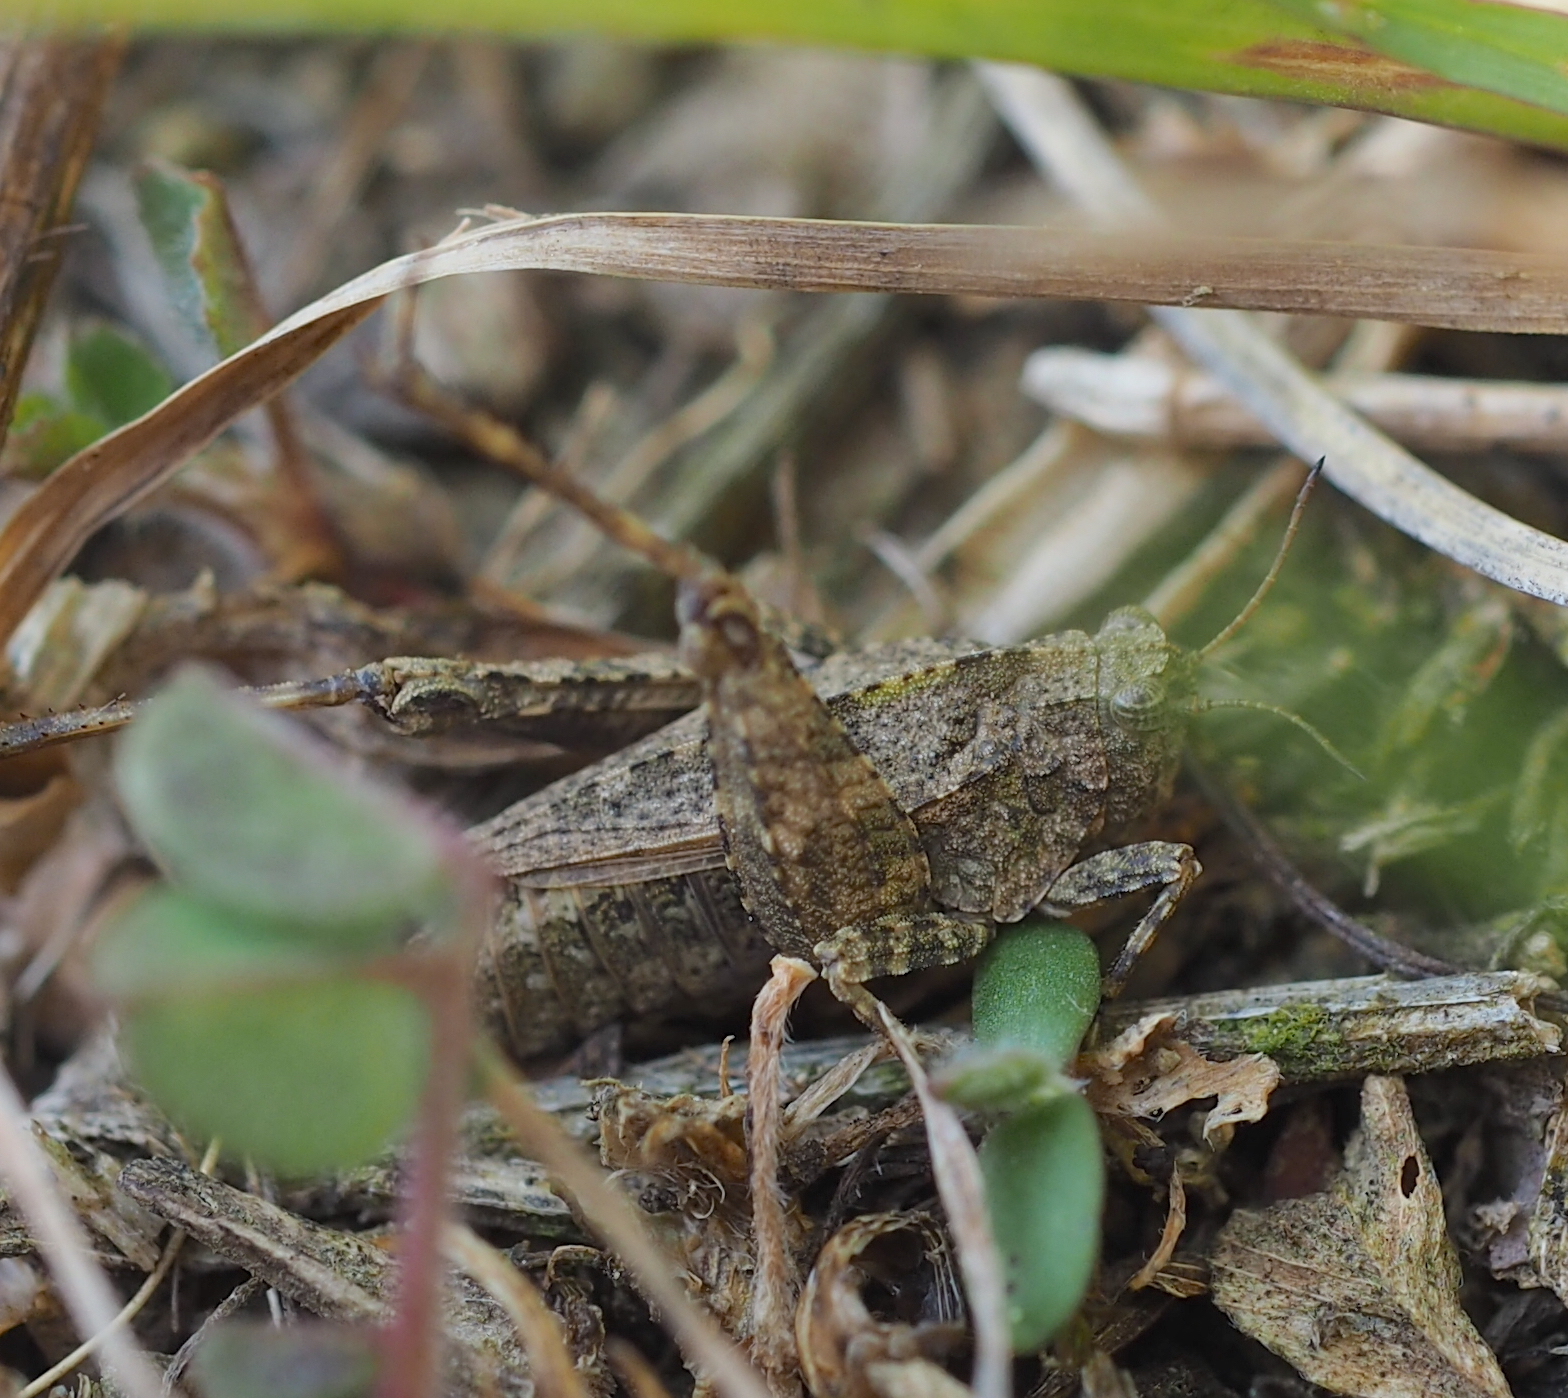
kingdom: Animalia
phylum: Arthropoda
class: Insecta
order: Orthoptera
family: Tetrigidae
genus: Tetrix
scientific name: Tetrix tenuicornis
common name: Long-horned groundhopper
